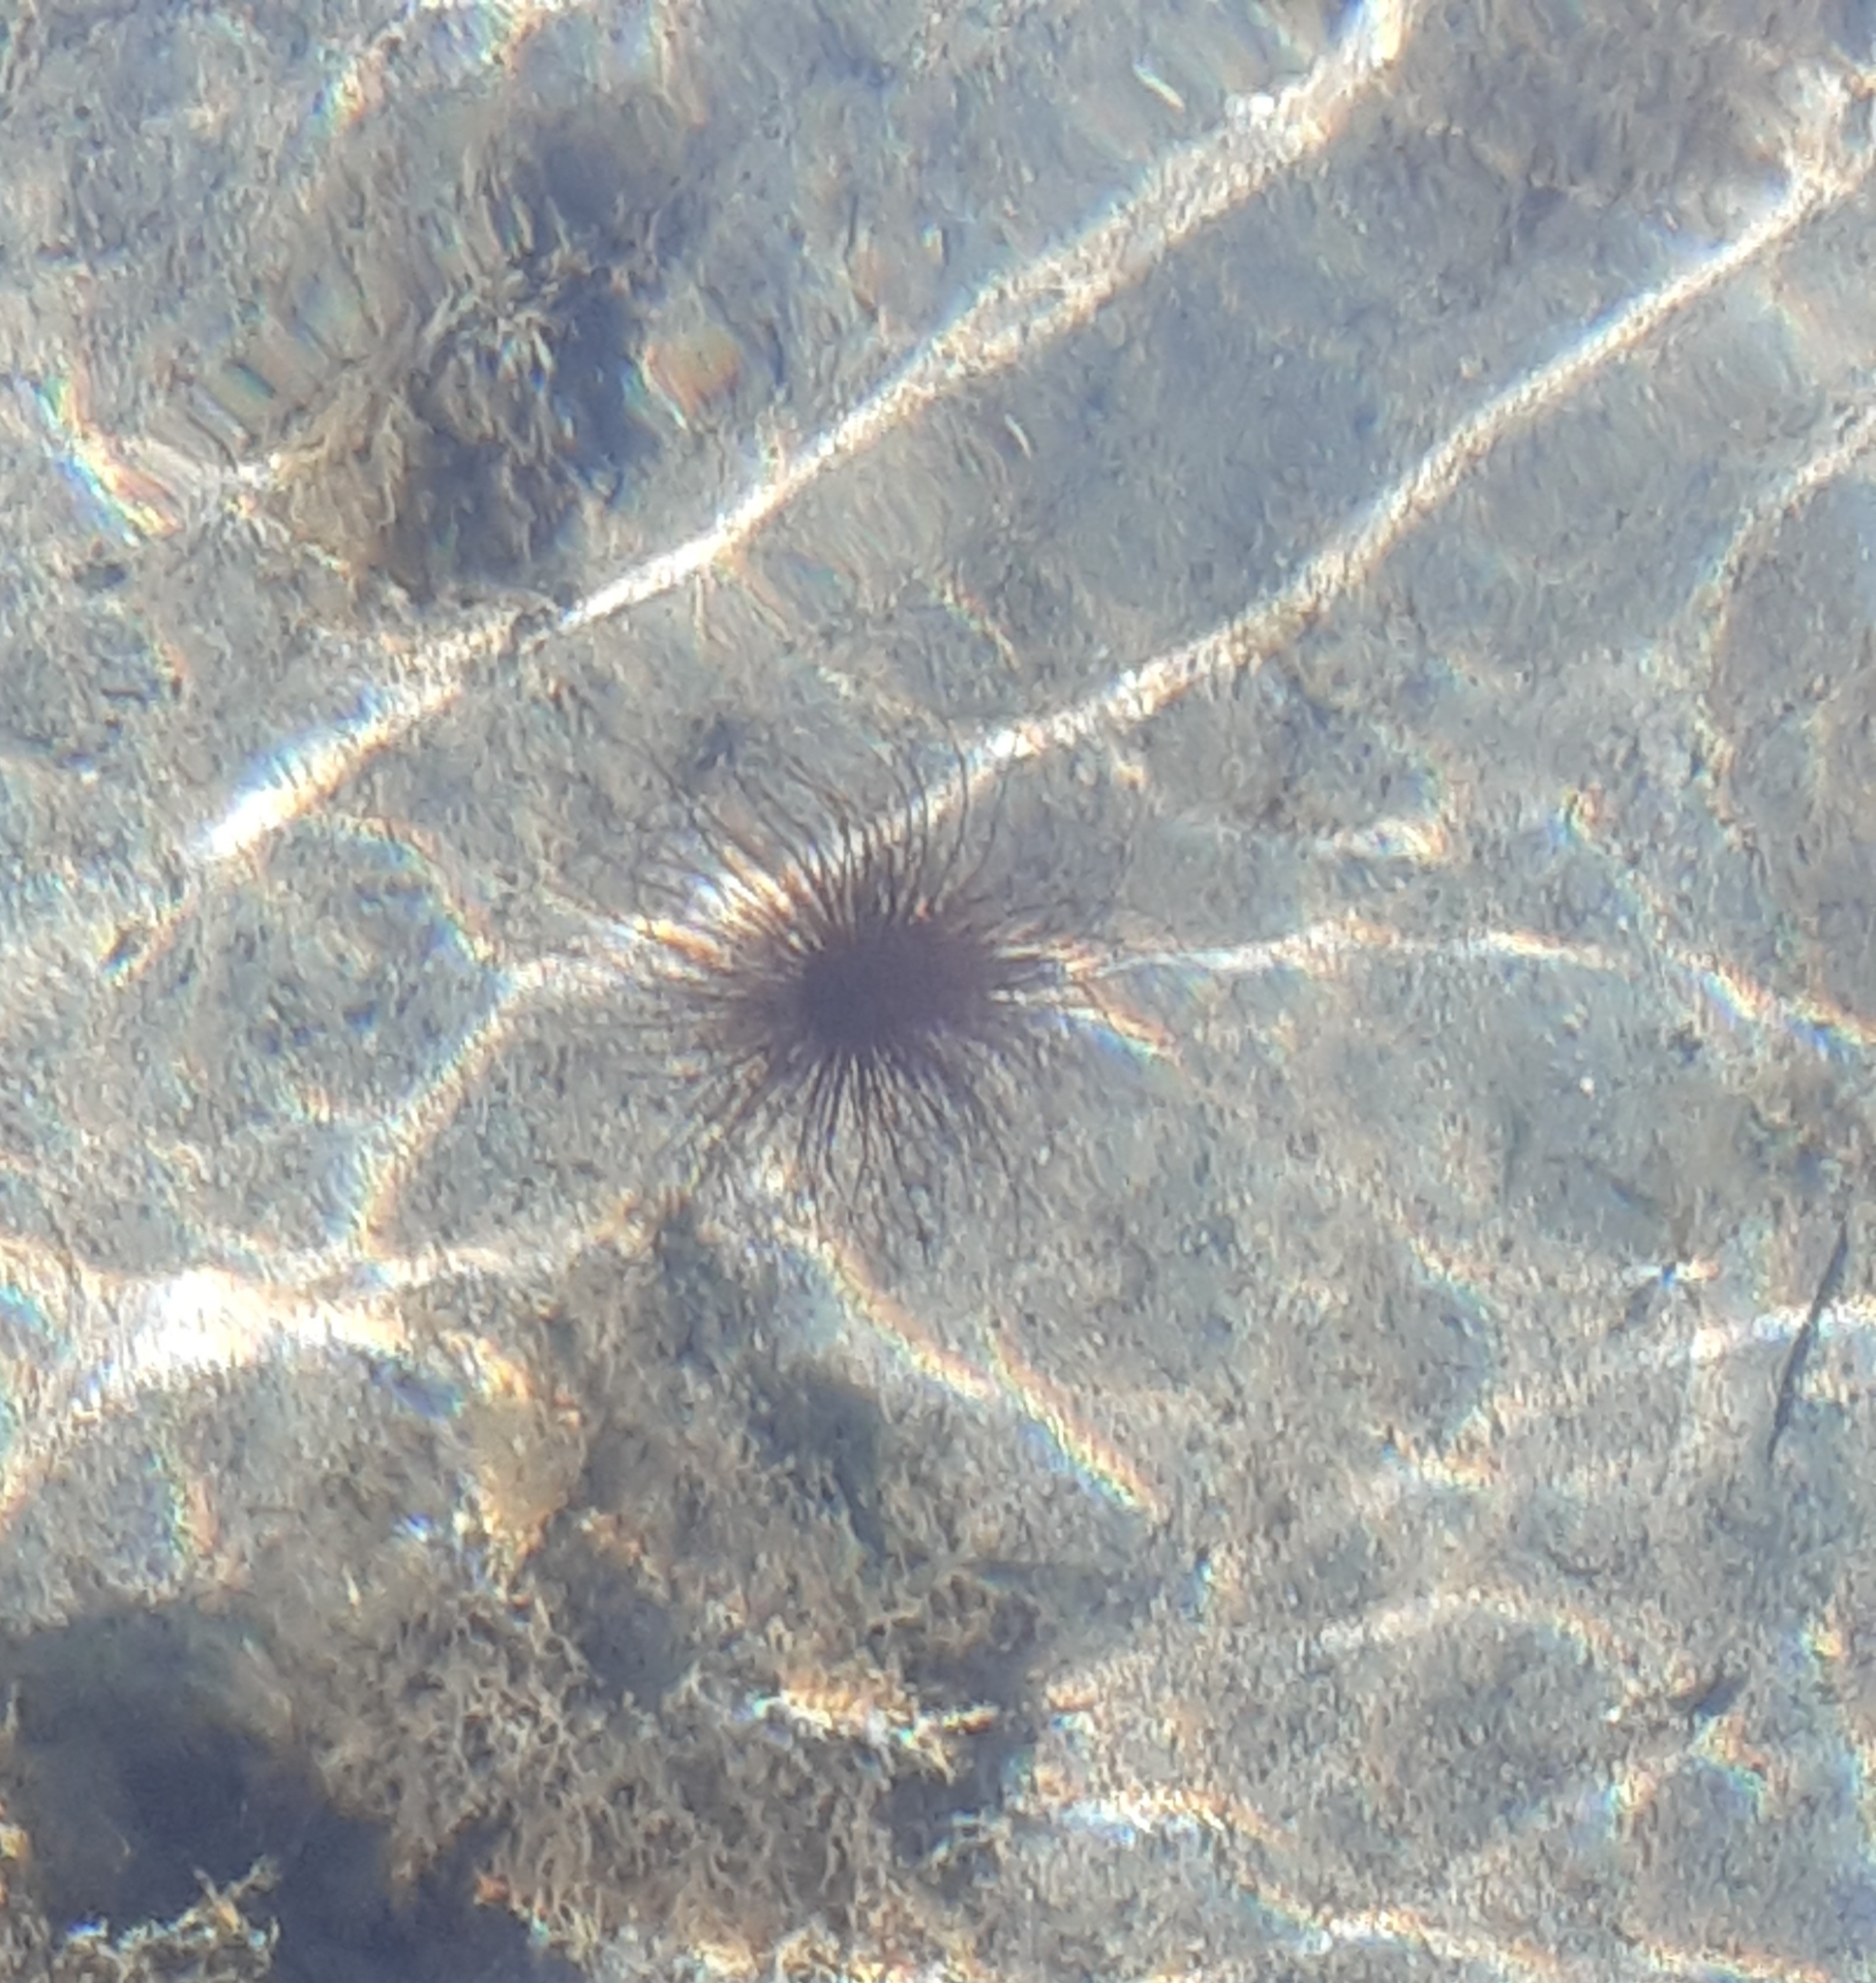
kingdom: Animalia
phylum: Cnidaria
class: Anthozoa
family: Cerianthidae
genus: Cerianthus
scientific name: Cerianthus membranaceus
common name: Cylinder anemone
